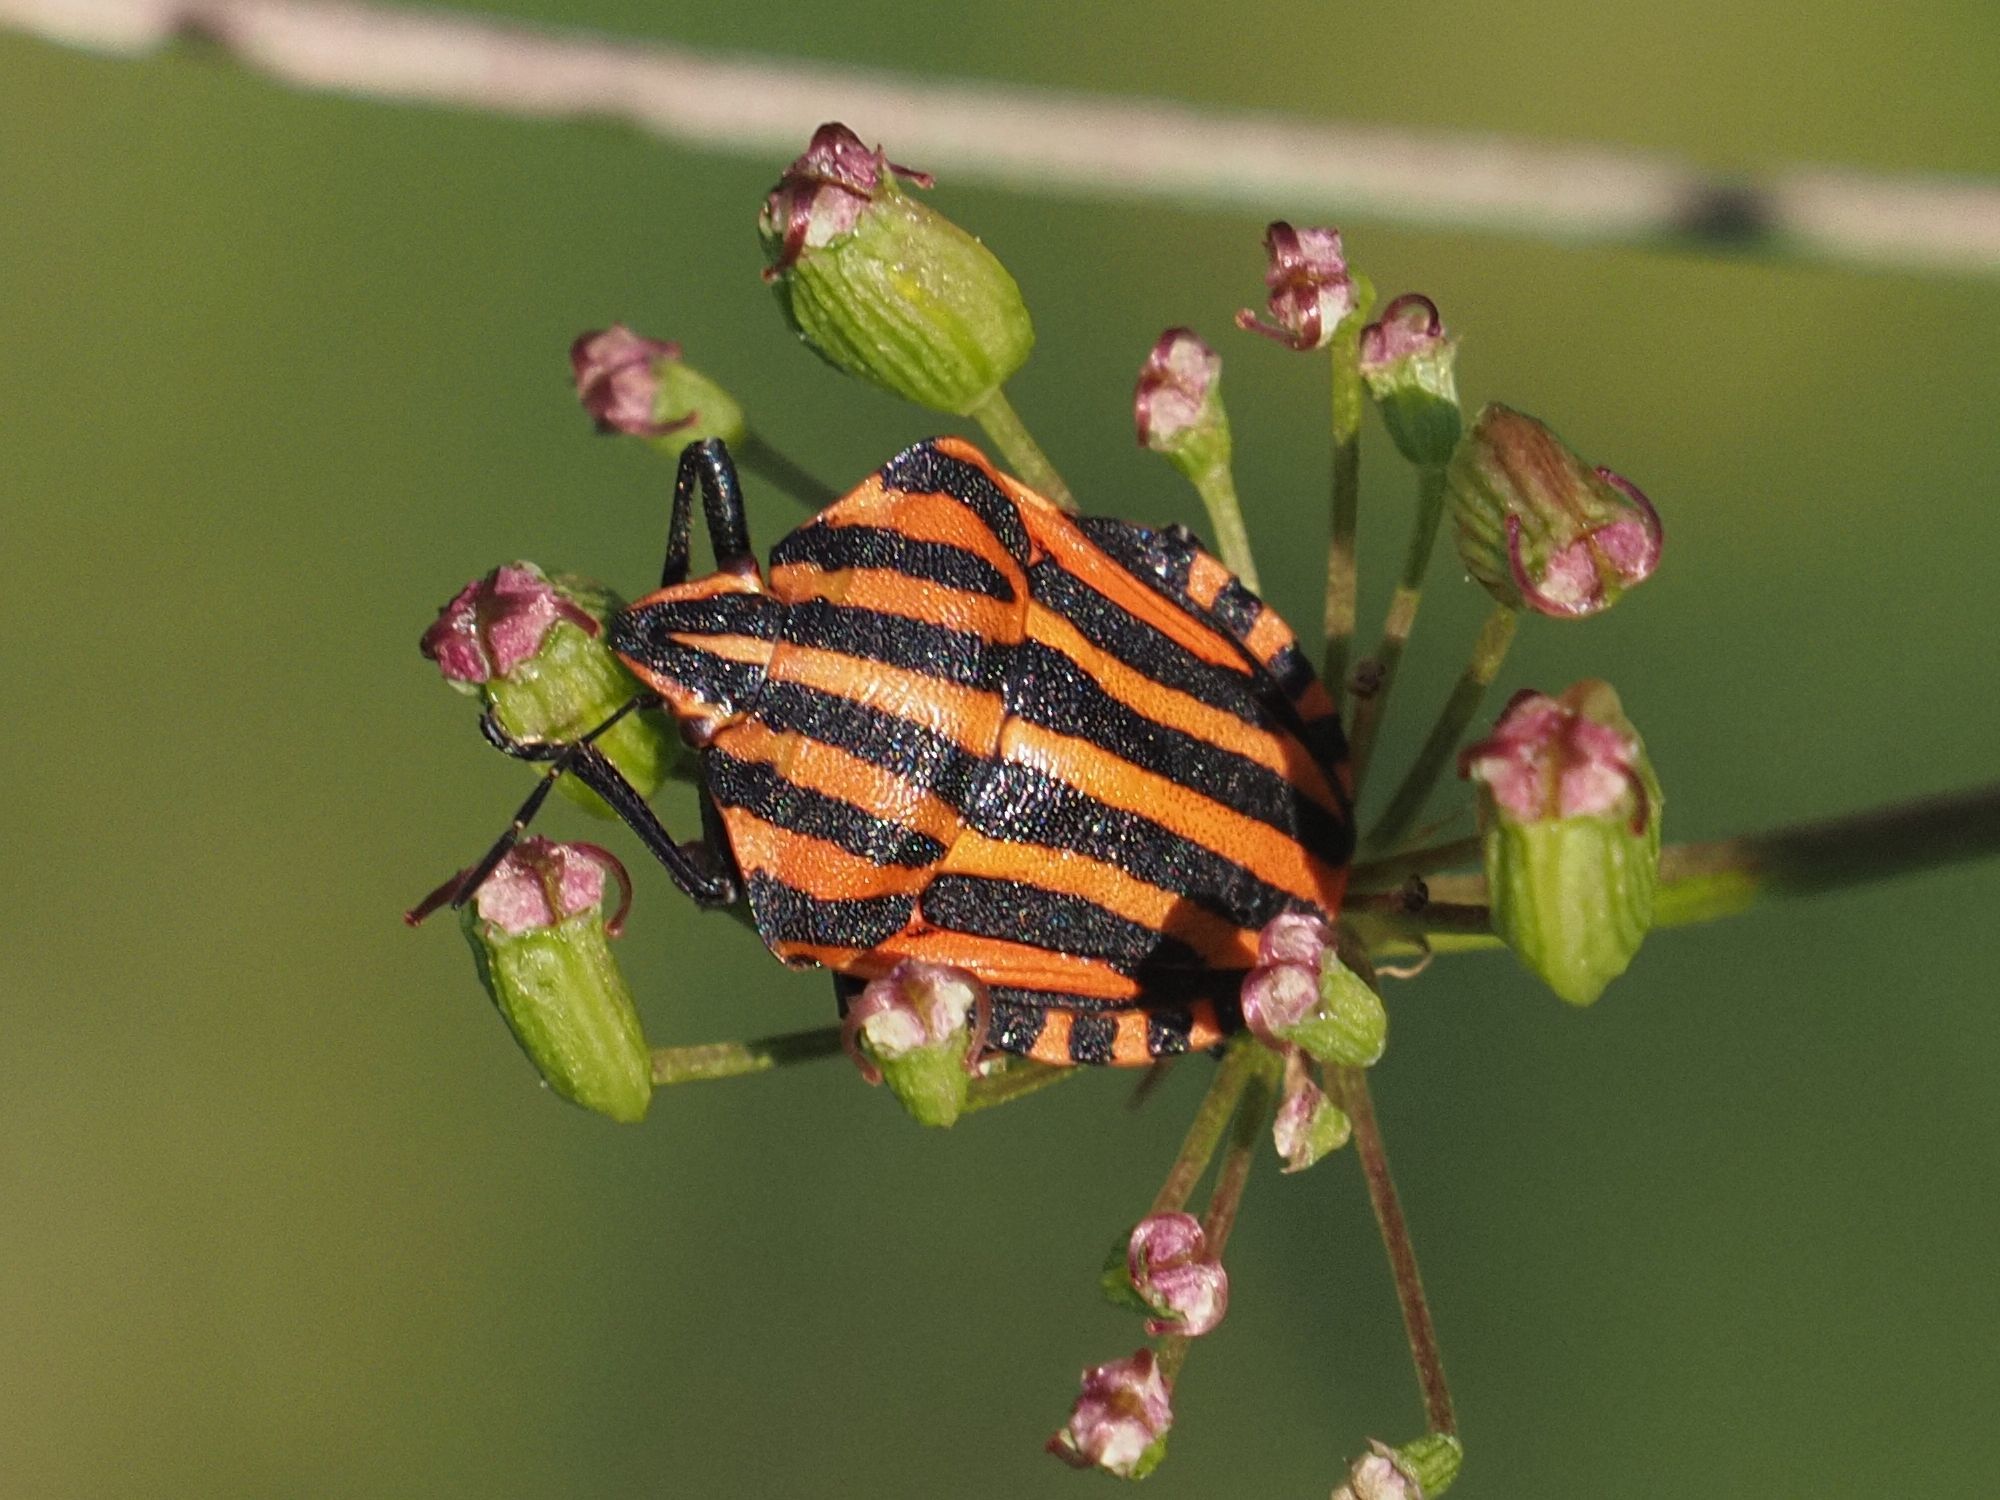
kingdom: Animalia
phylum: Arthropoda
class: Insecta
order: Hemiptera
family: Pentatomidae
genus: Graphosoma
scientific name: Graphosoma italicum
